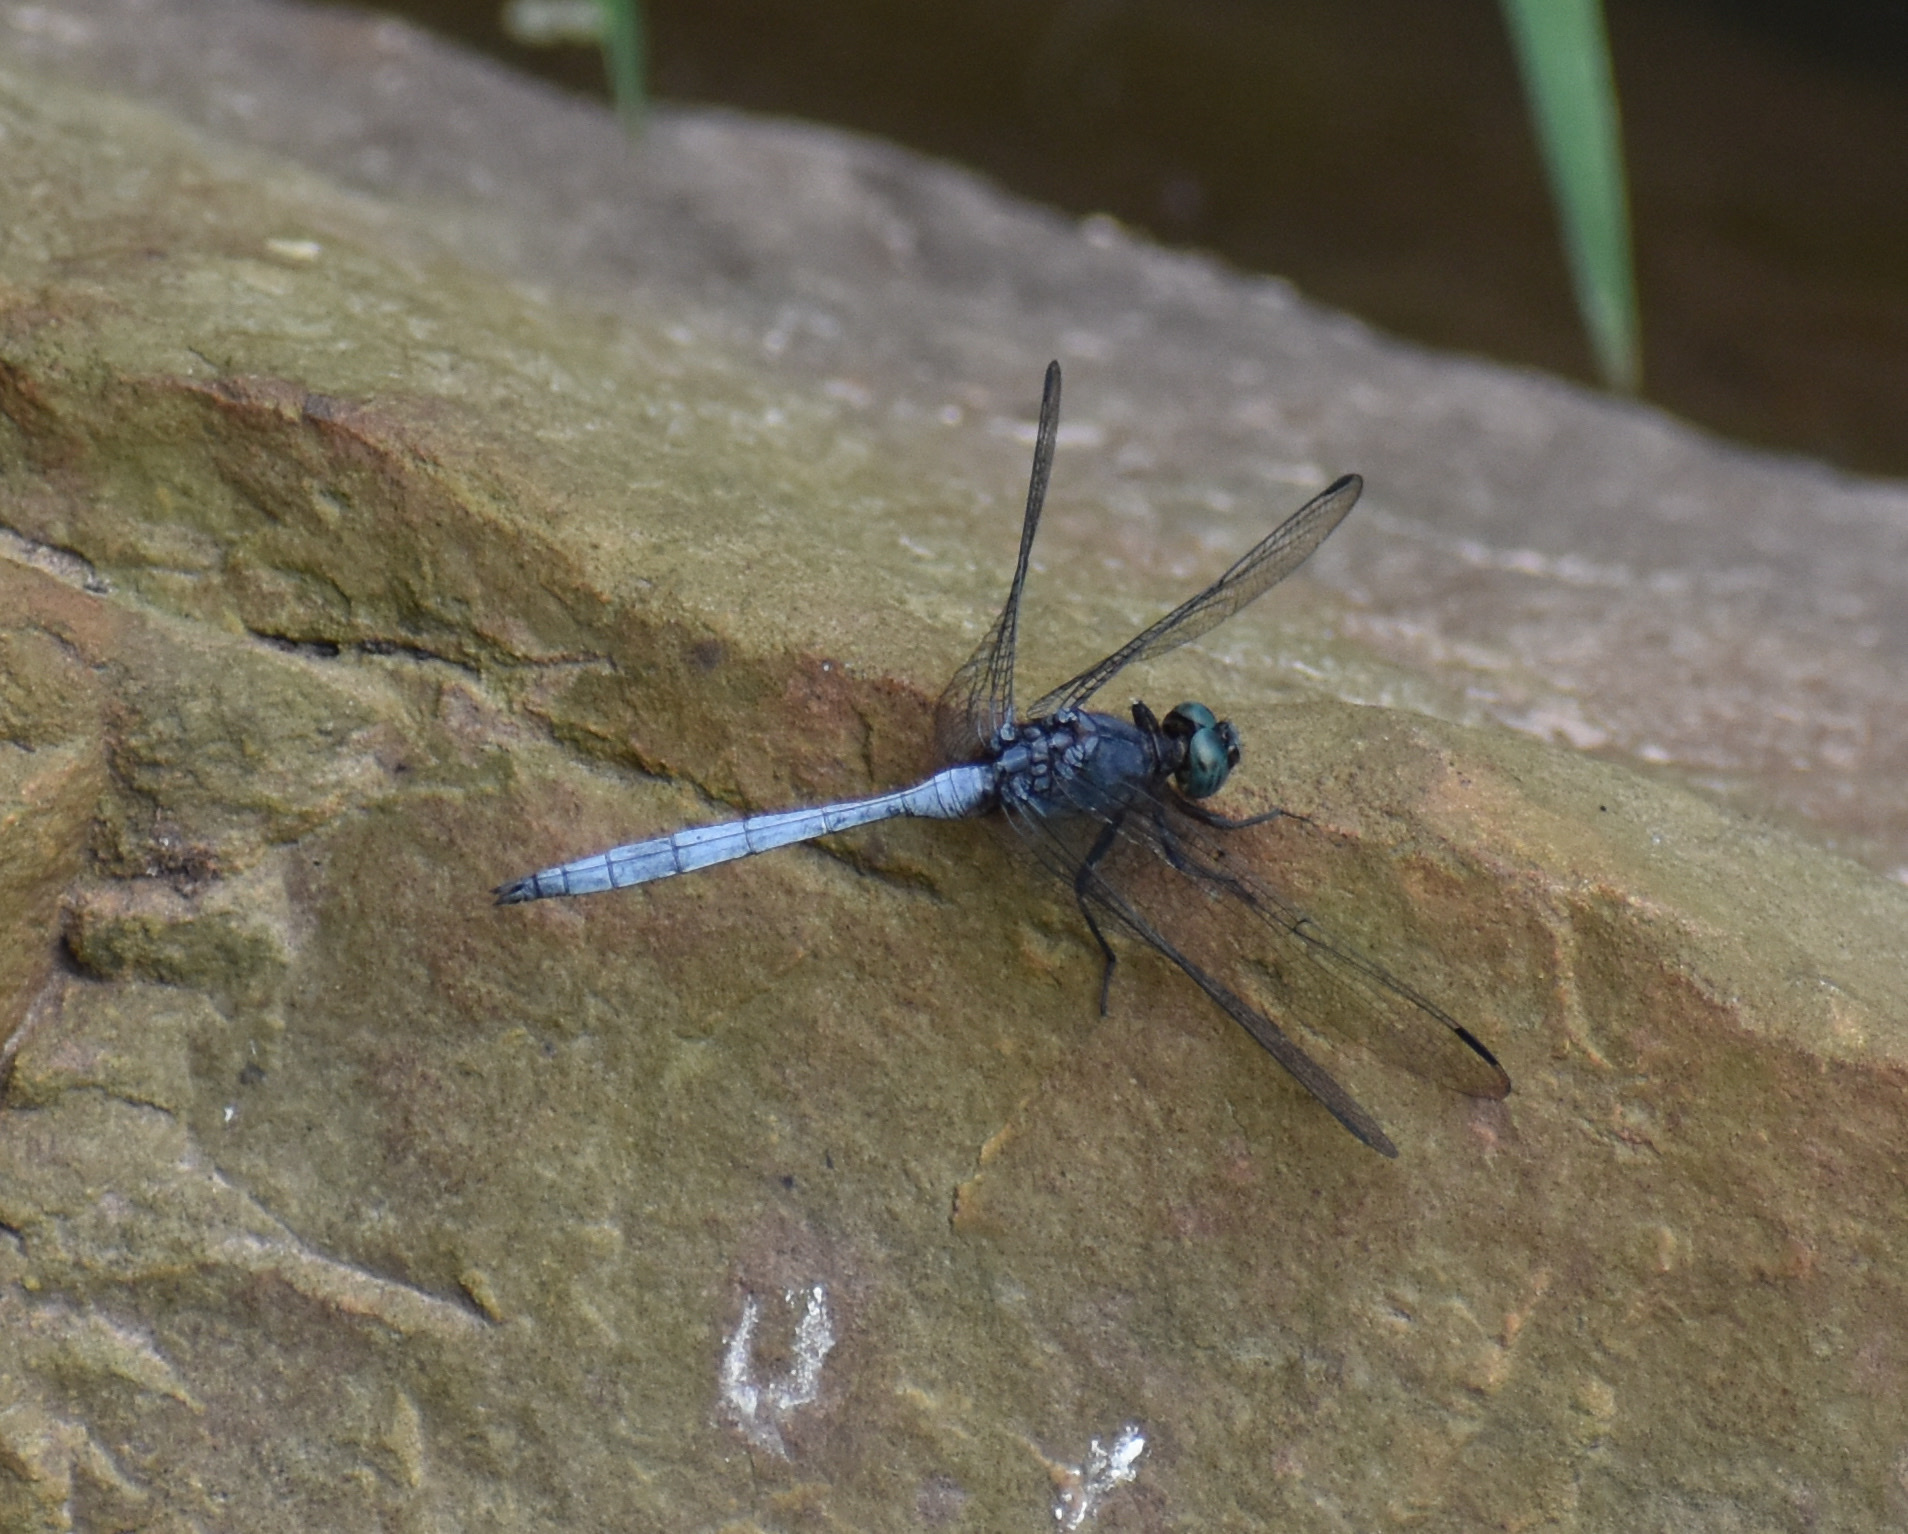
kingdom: Animalia
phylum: Arthropoda
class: Insecta
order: Odonata
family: Libellulidae
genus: Orthetrum
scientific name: Orthetrum julia
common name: Julia skimmer
